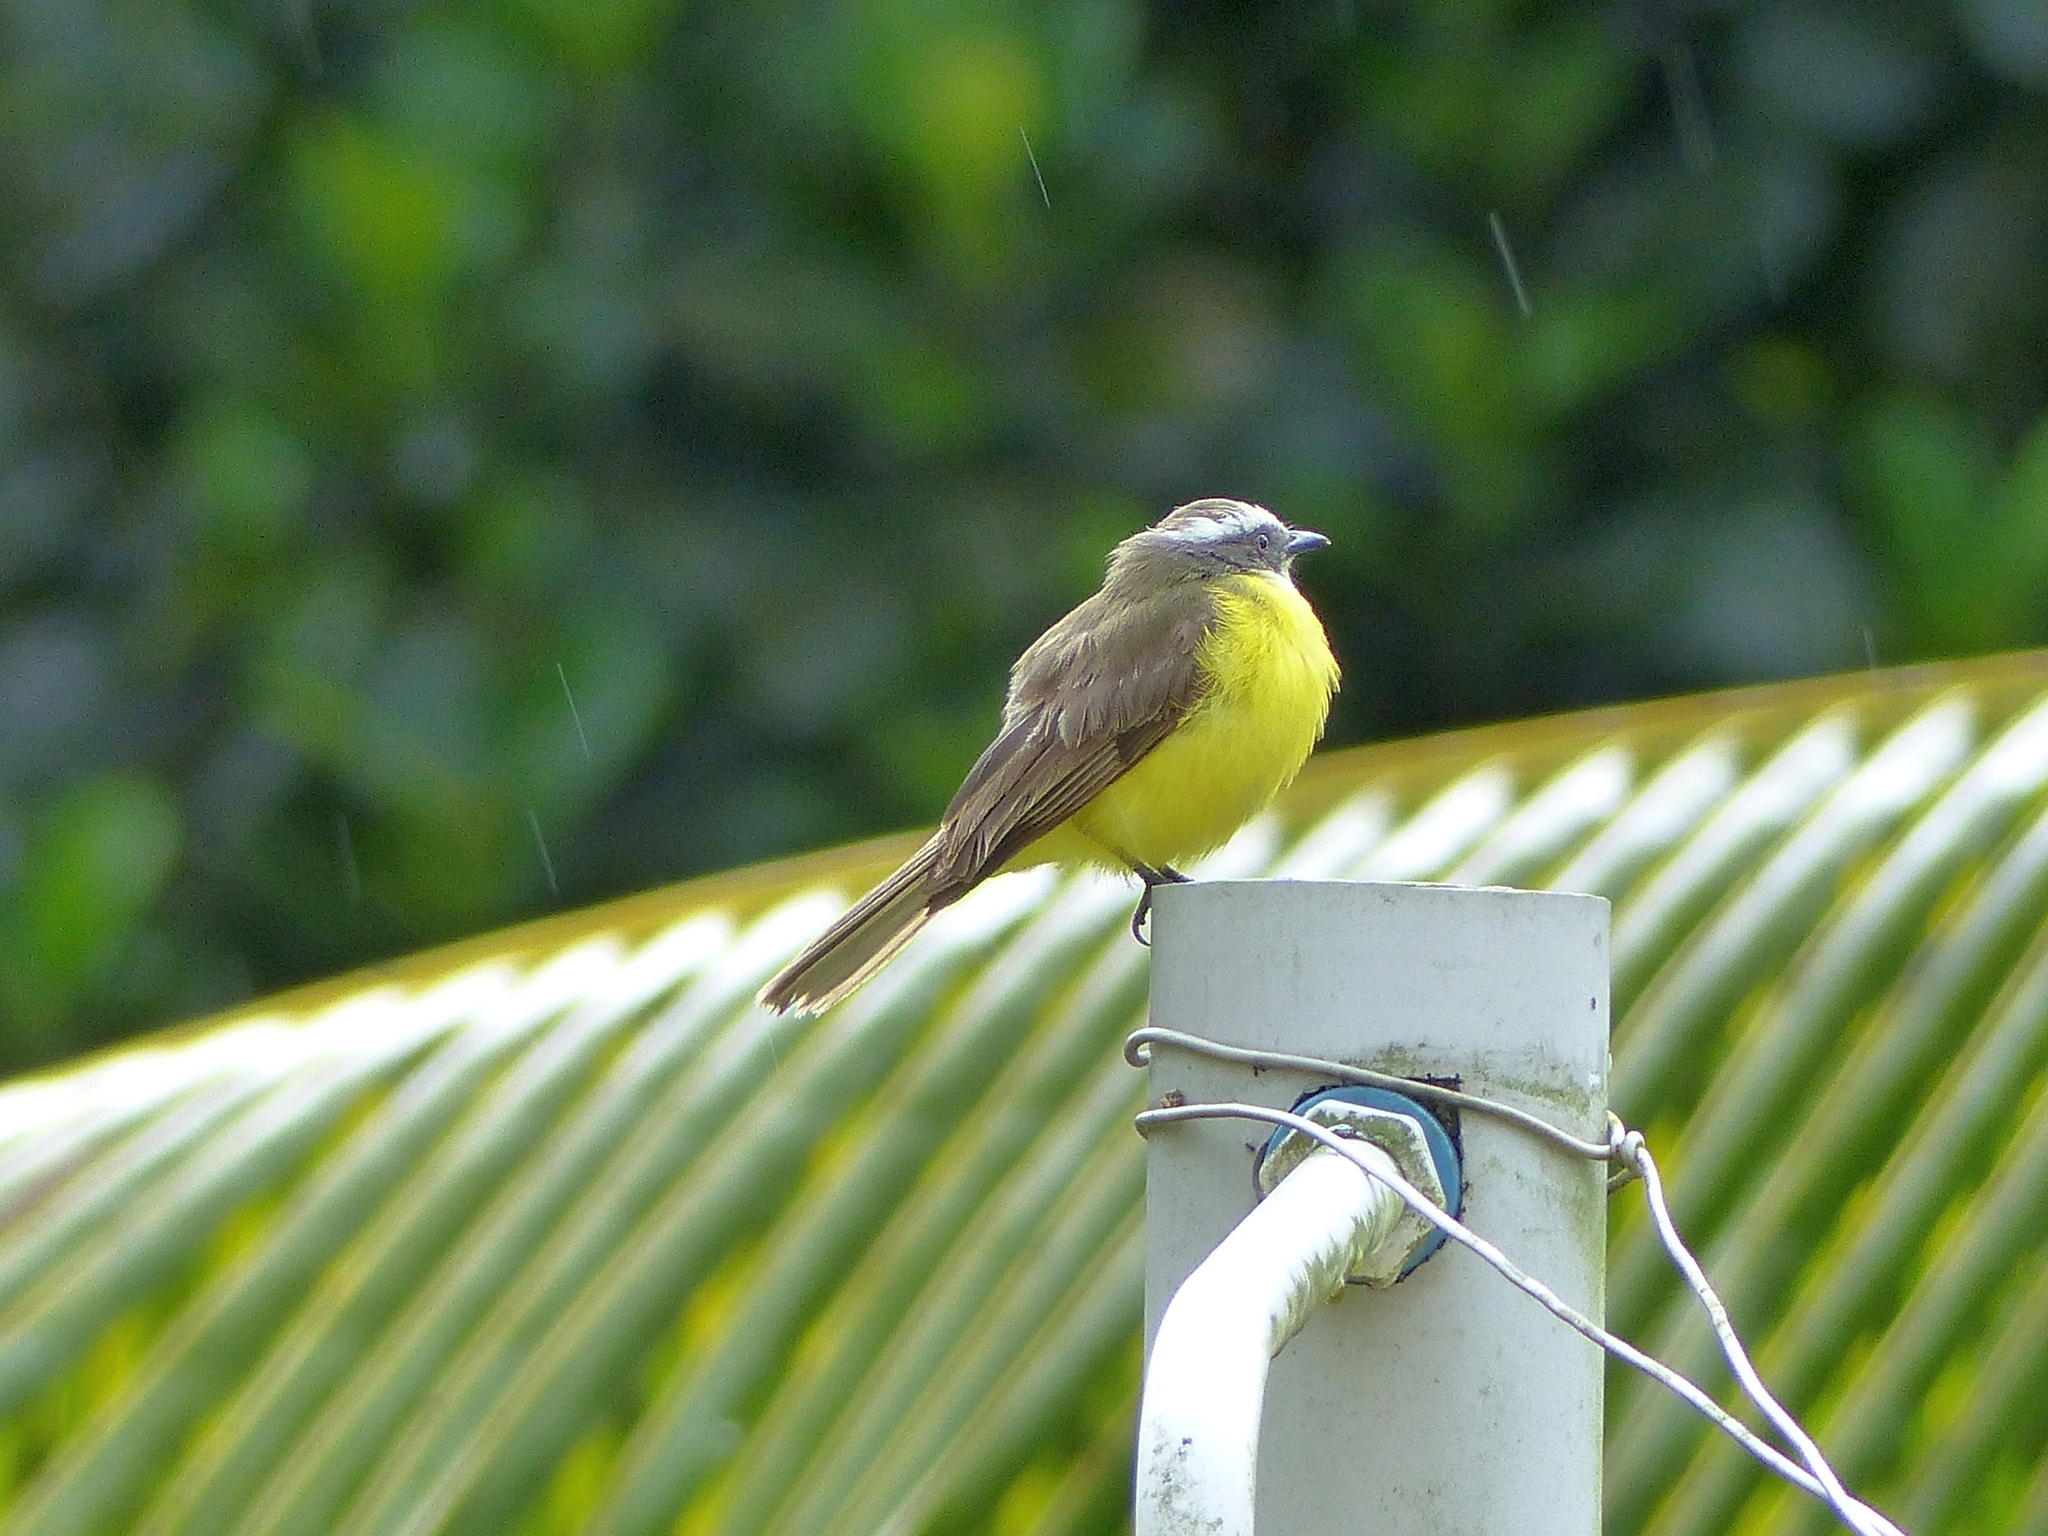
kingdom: Animalia
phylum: Chordata
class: Aves
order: Passeriformes
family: Tyrannidae
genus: Myiozetetes
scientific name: Myiozetetes similis
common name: Social flycatcher
